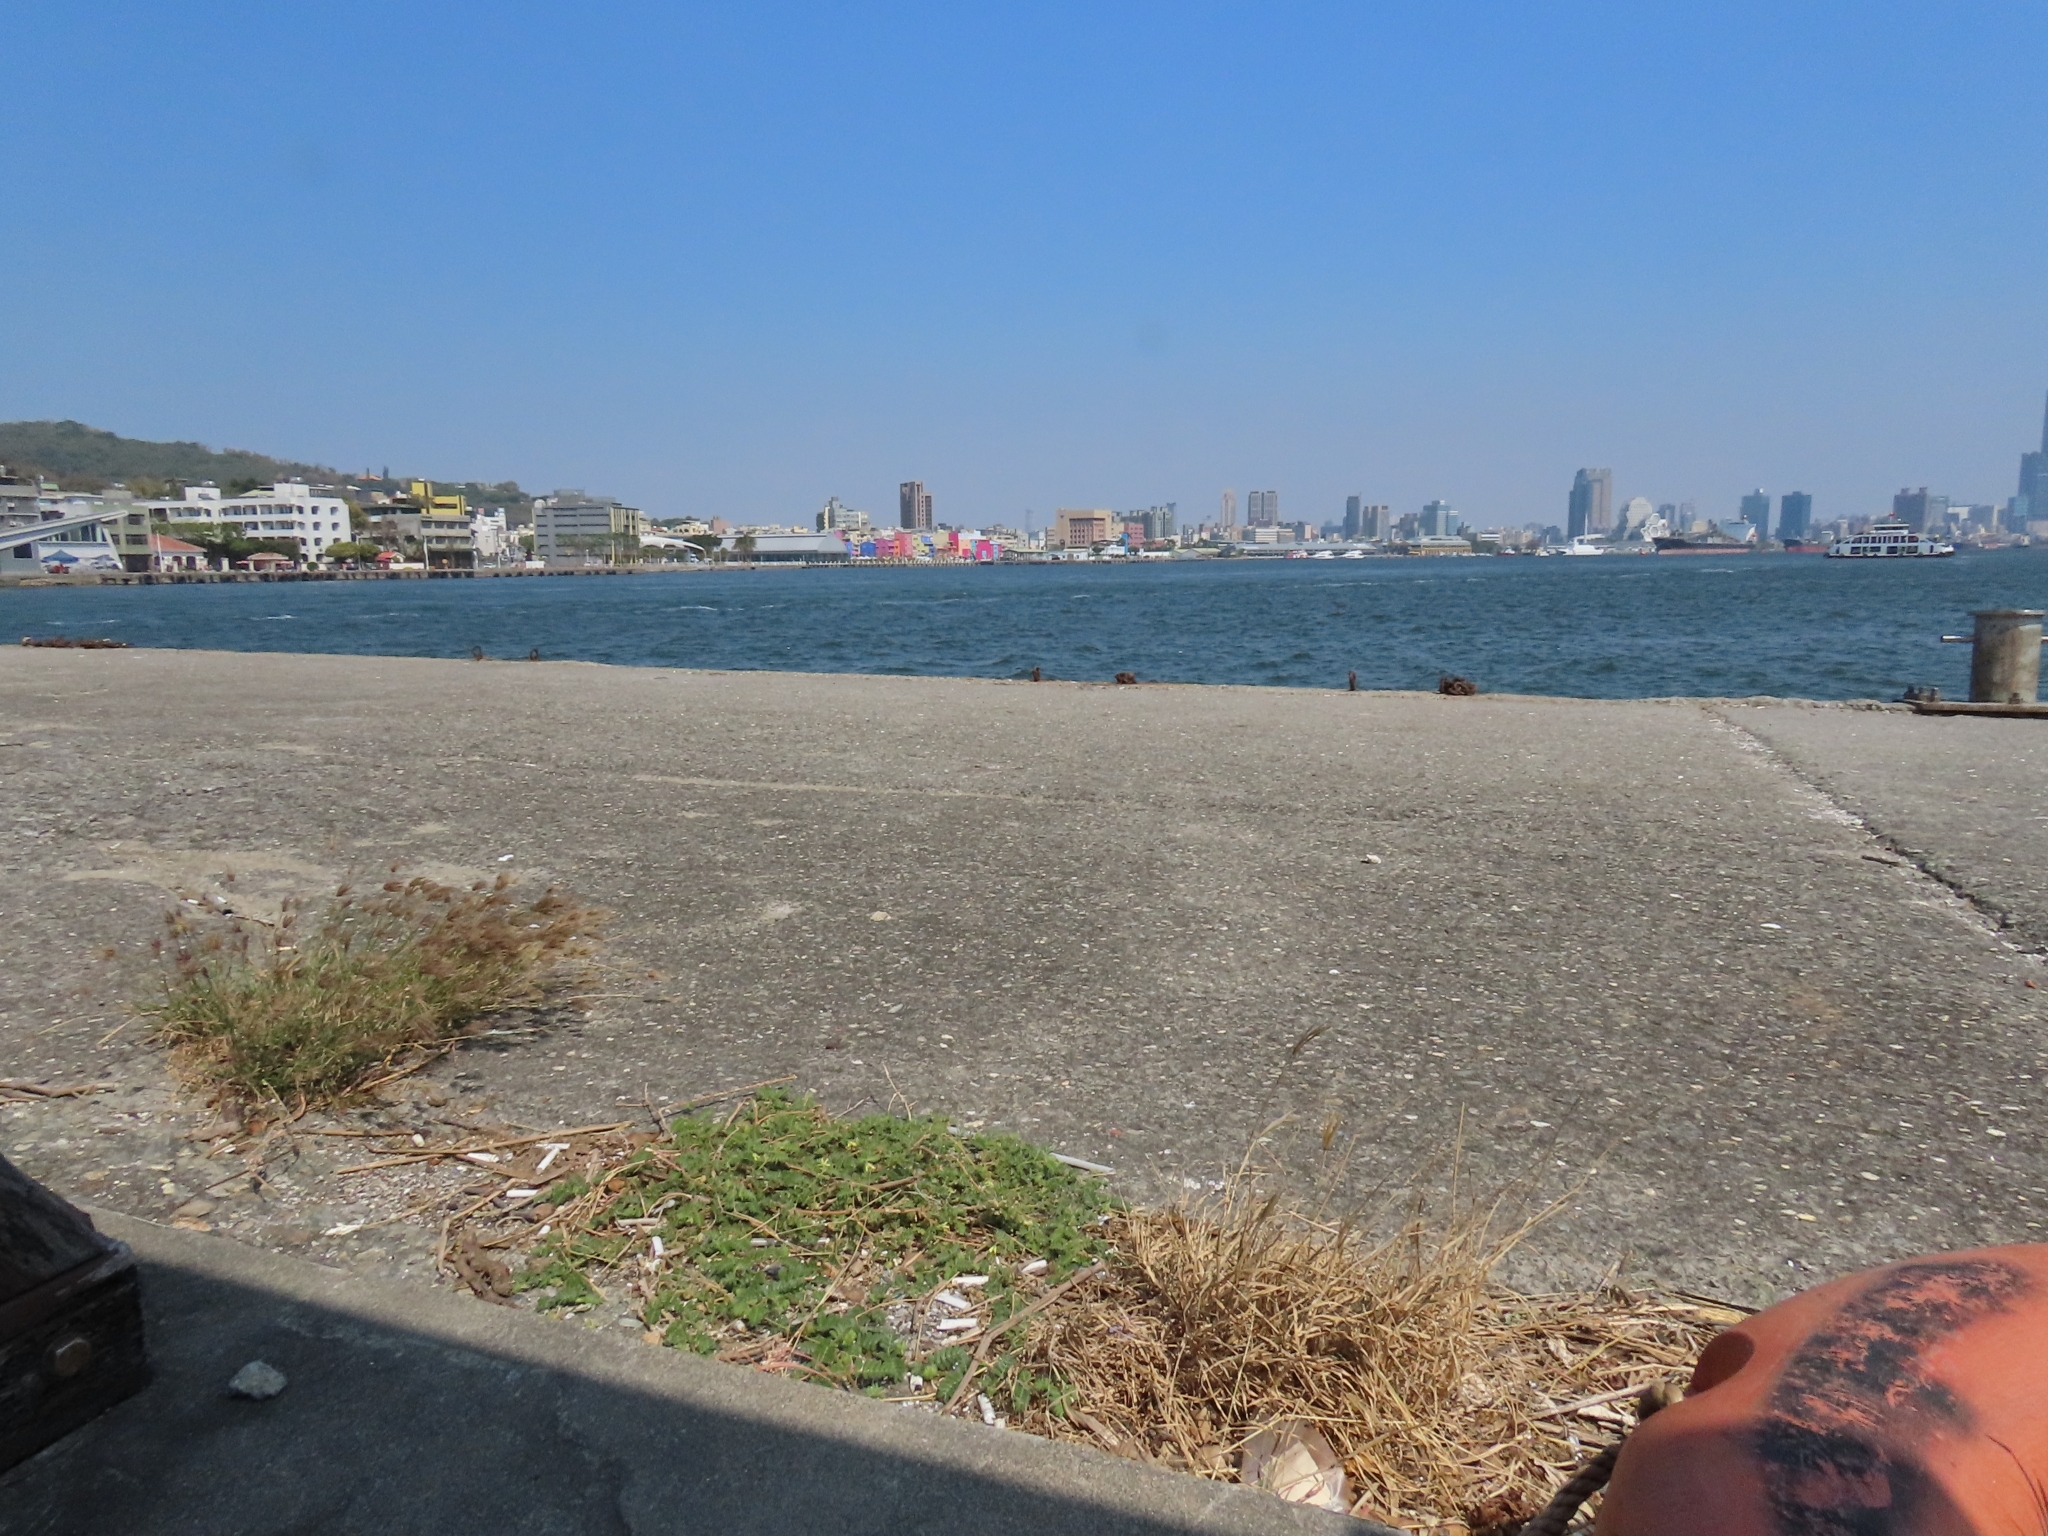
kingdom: Plantae
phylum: Tracheophyta
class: Magnoliopsida
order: Zygophyllales
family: Zygophyllaceae
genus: Tribulus
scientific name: Tribulus cistoides
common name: Jamaican feverplant
